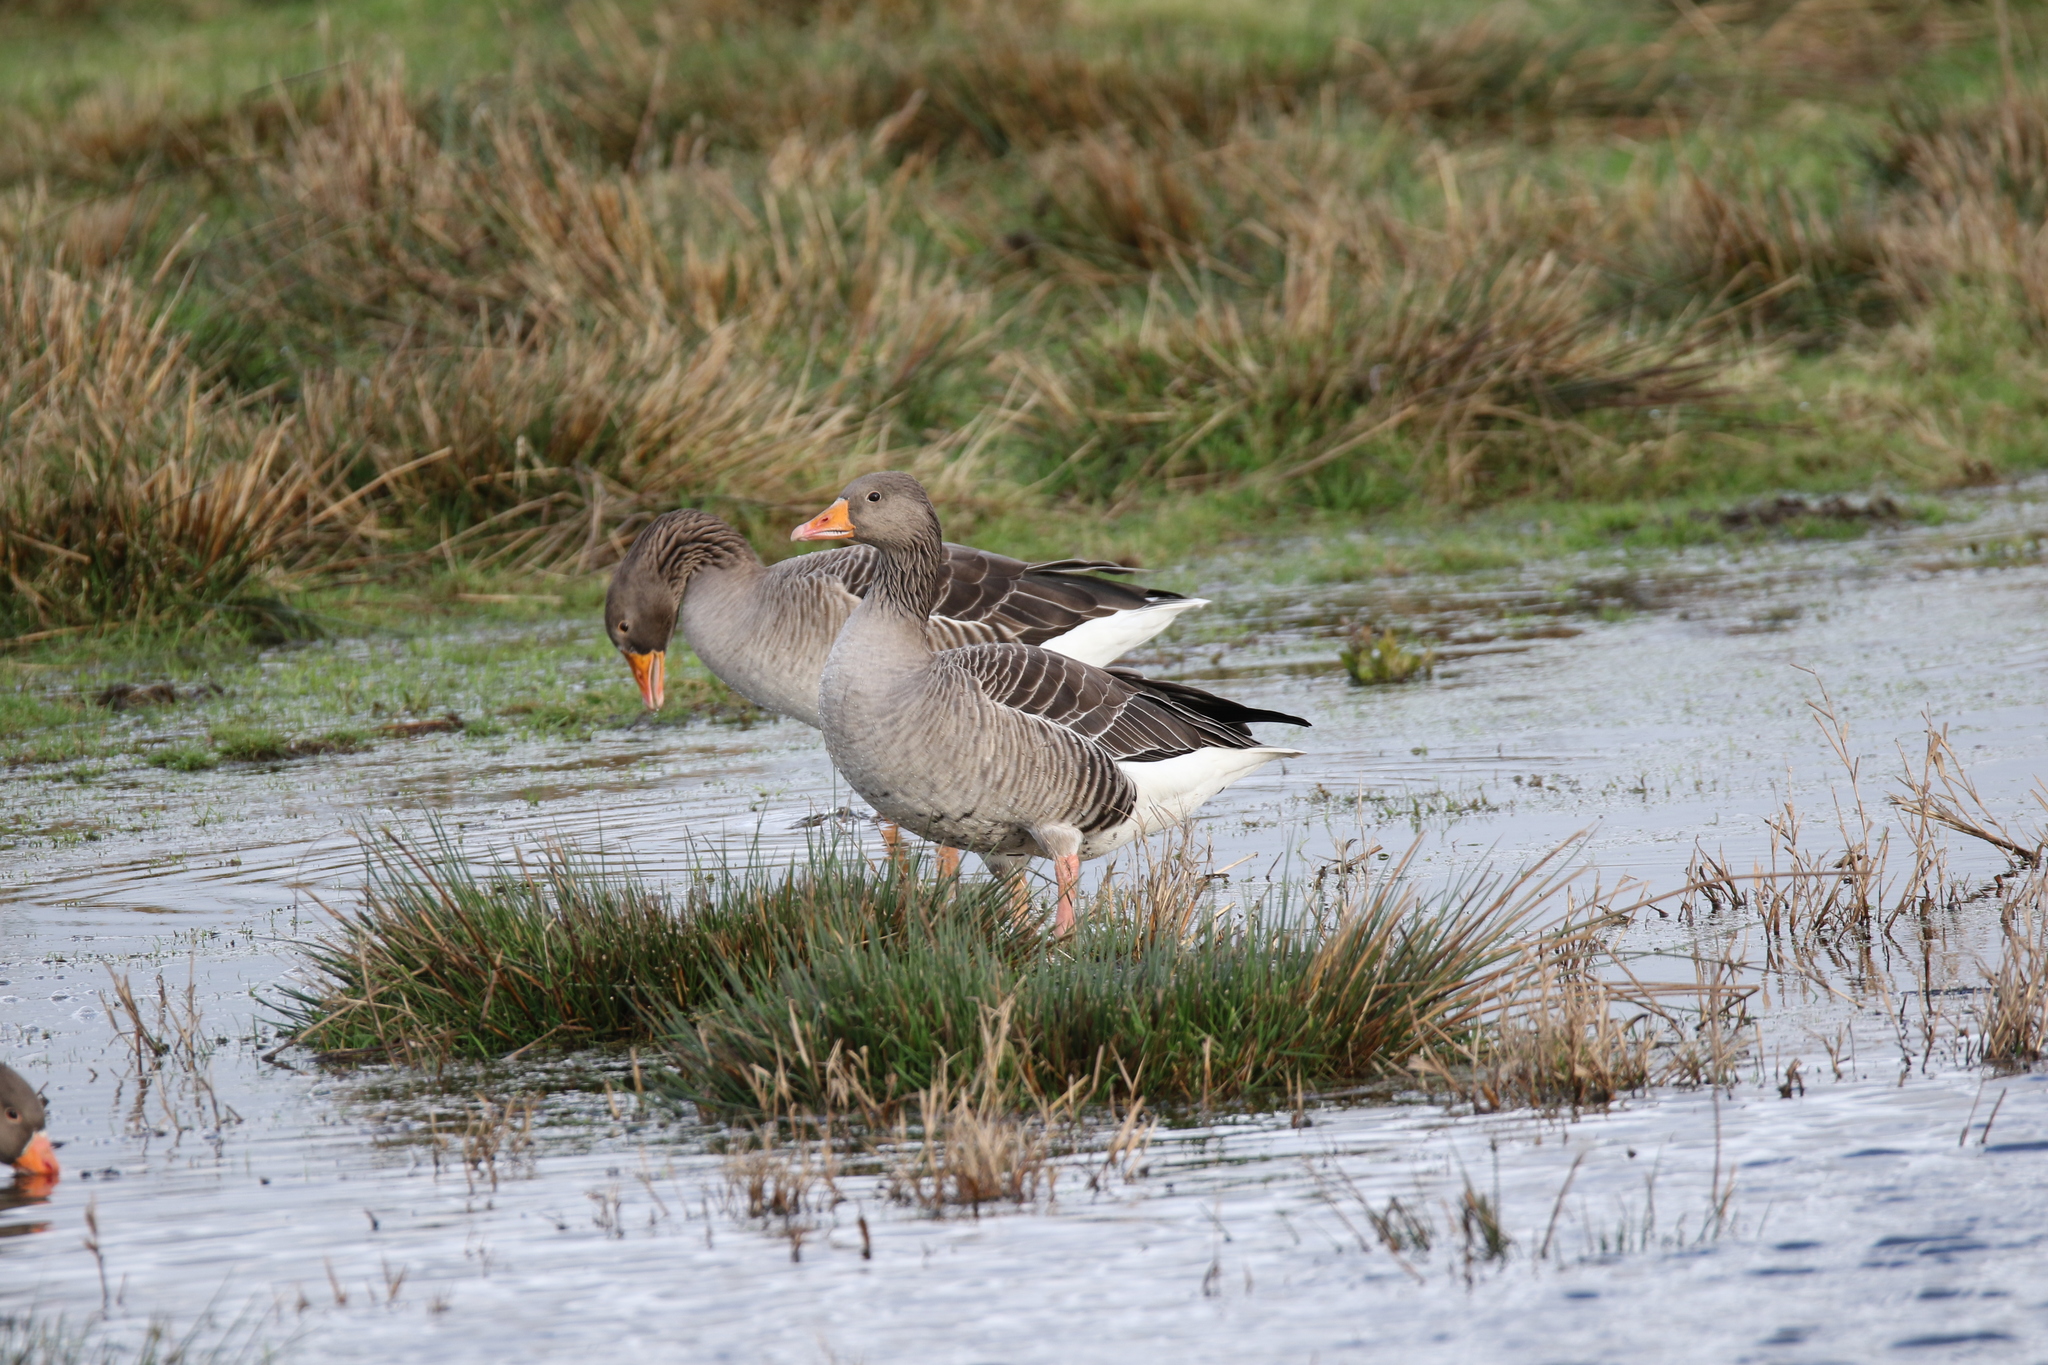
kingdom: Animalia
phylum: Chordata
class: Aves
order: Anseriformes
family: Anatidae
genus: Anser
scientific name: Anser anser
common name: Greylag goose
